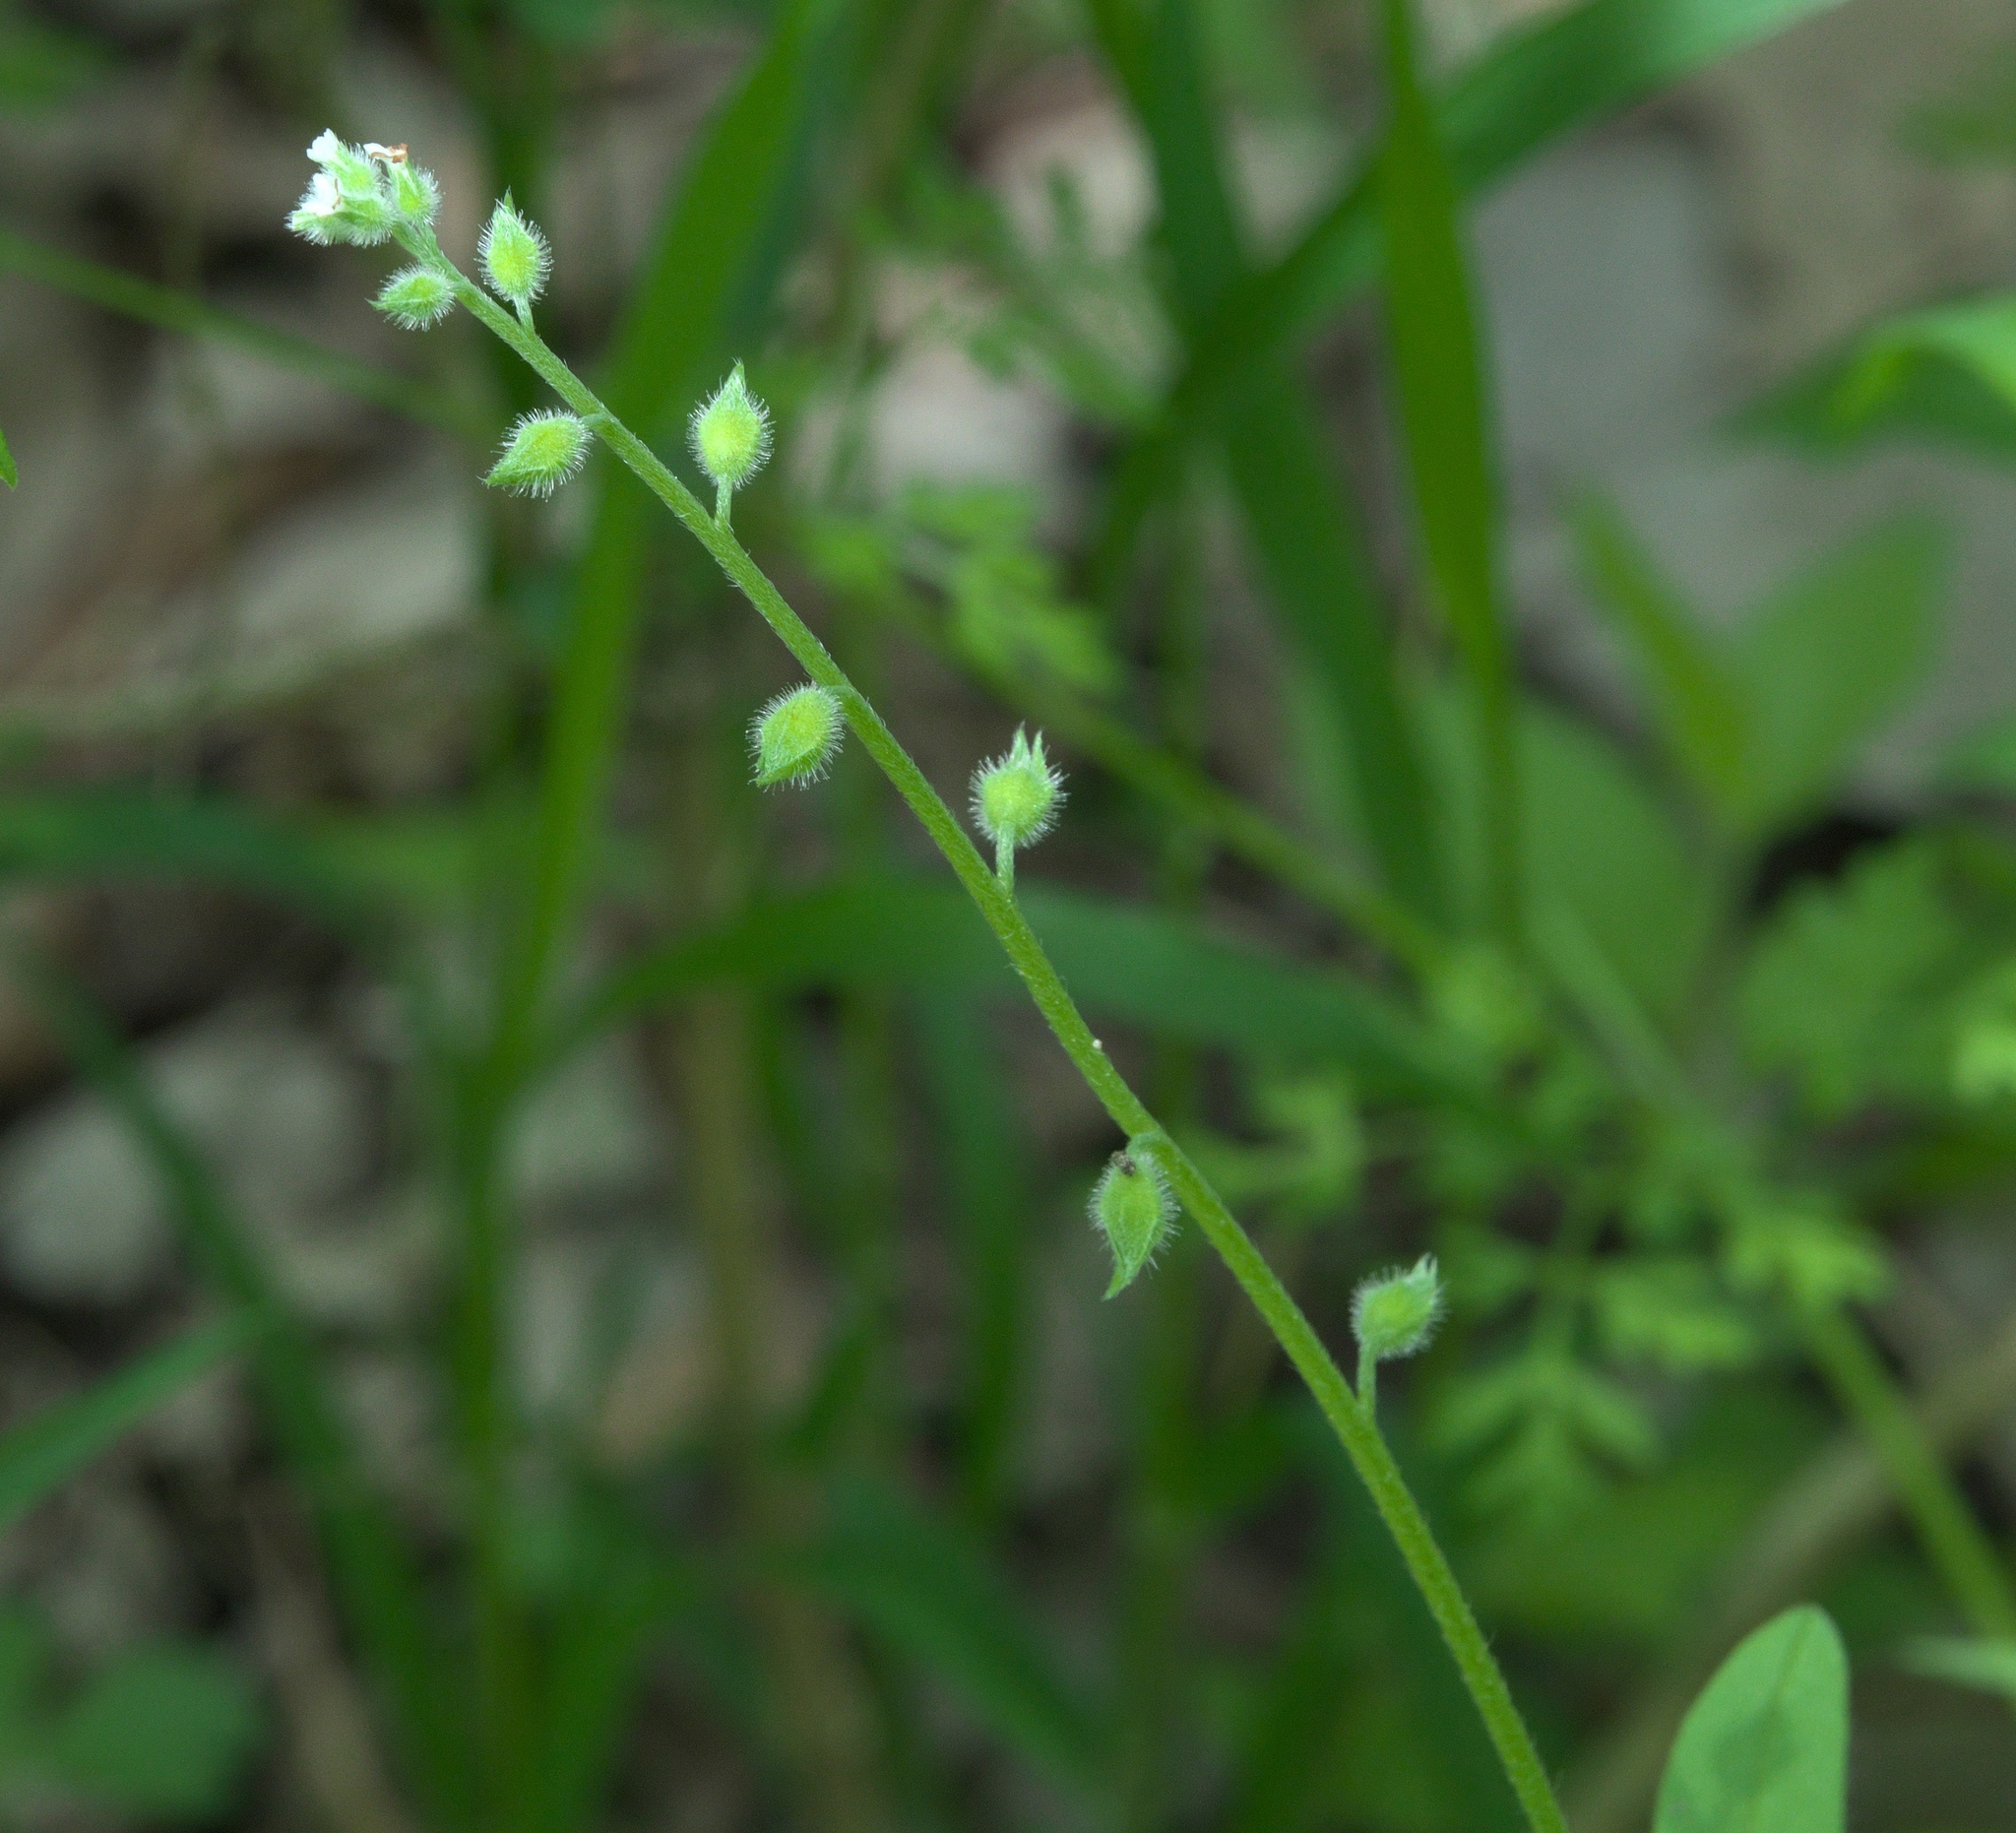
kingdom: Plantae
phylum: Tracheophyta
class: Magnoliopsida
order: Boraginales
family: Boraginaceae
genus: Myosotis
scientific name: Myosotis macrosperma
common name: Large-seed forget-me-not
